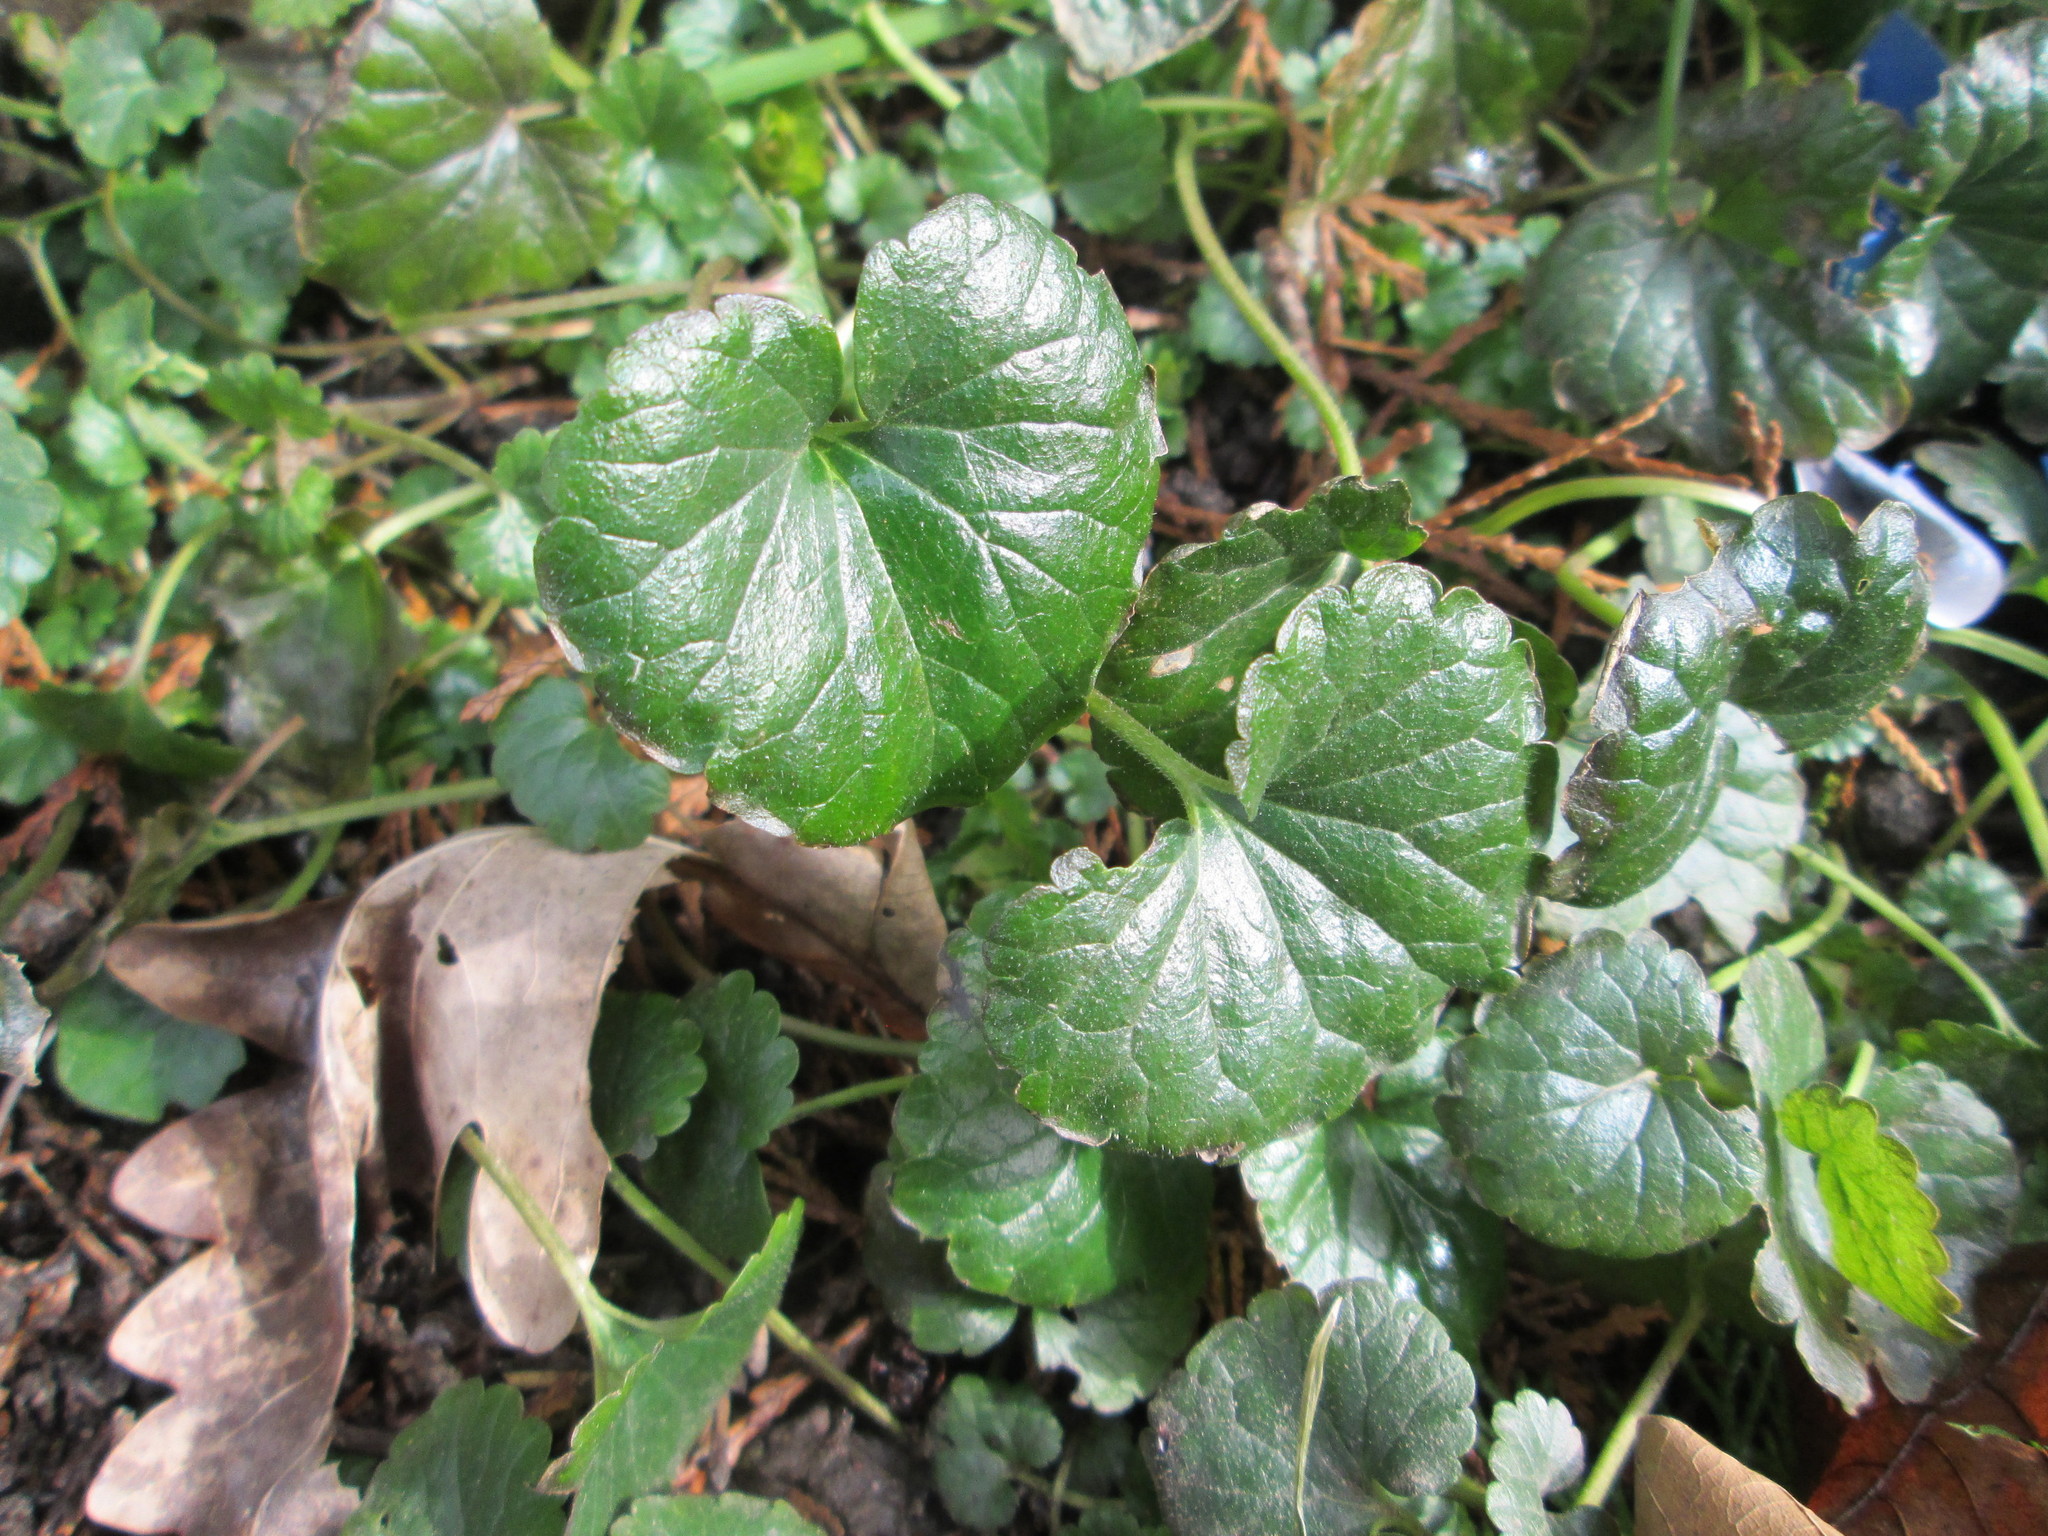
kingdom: Plantae
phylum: Tracheophyta
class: Magnoliopsida
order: Lamiales
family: Lamiaceae
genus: Glechoma
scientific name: Glechoma hederacea
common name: Ground ivy
